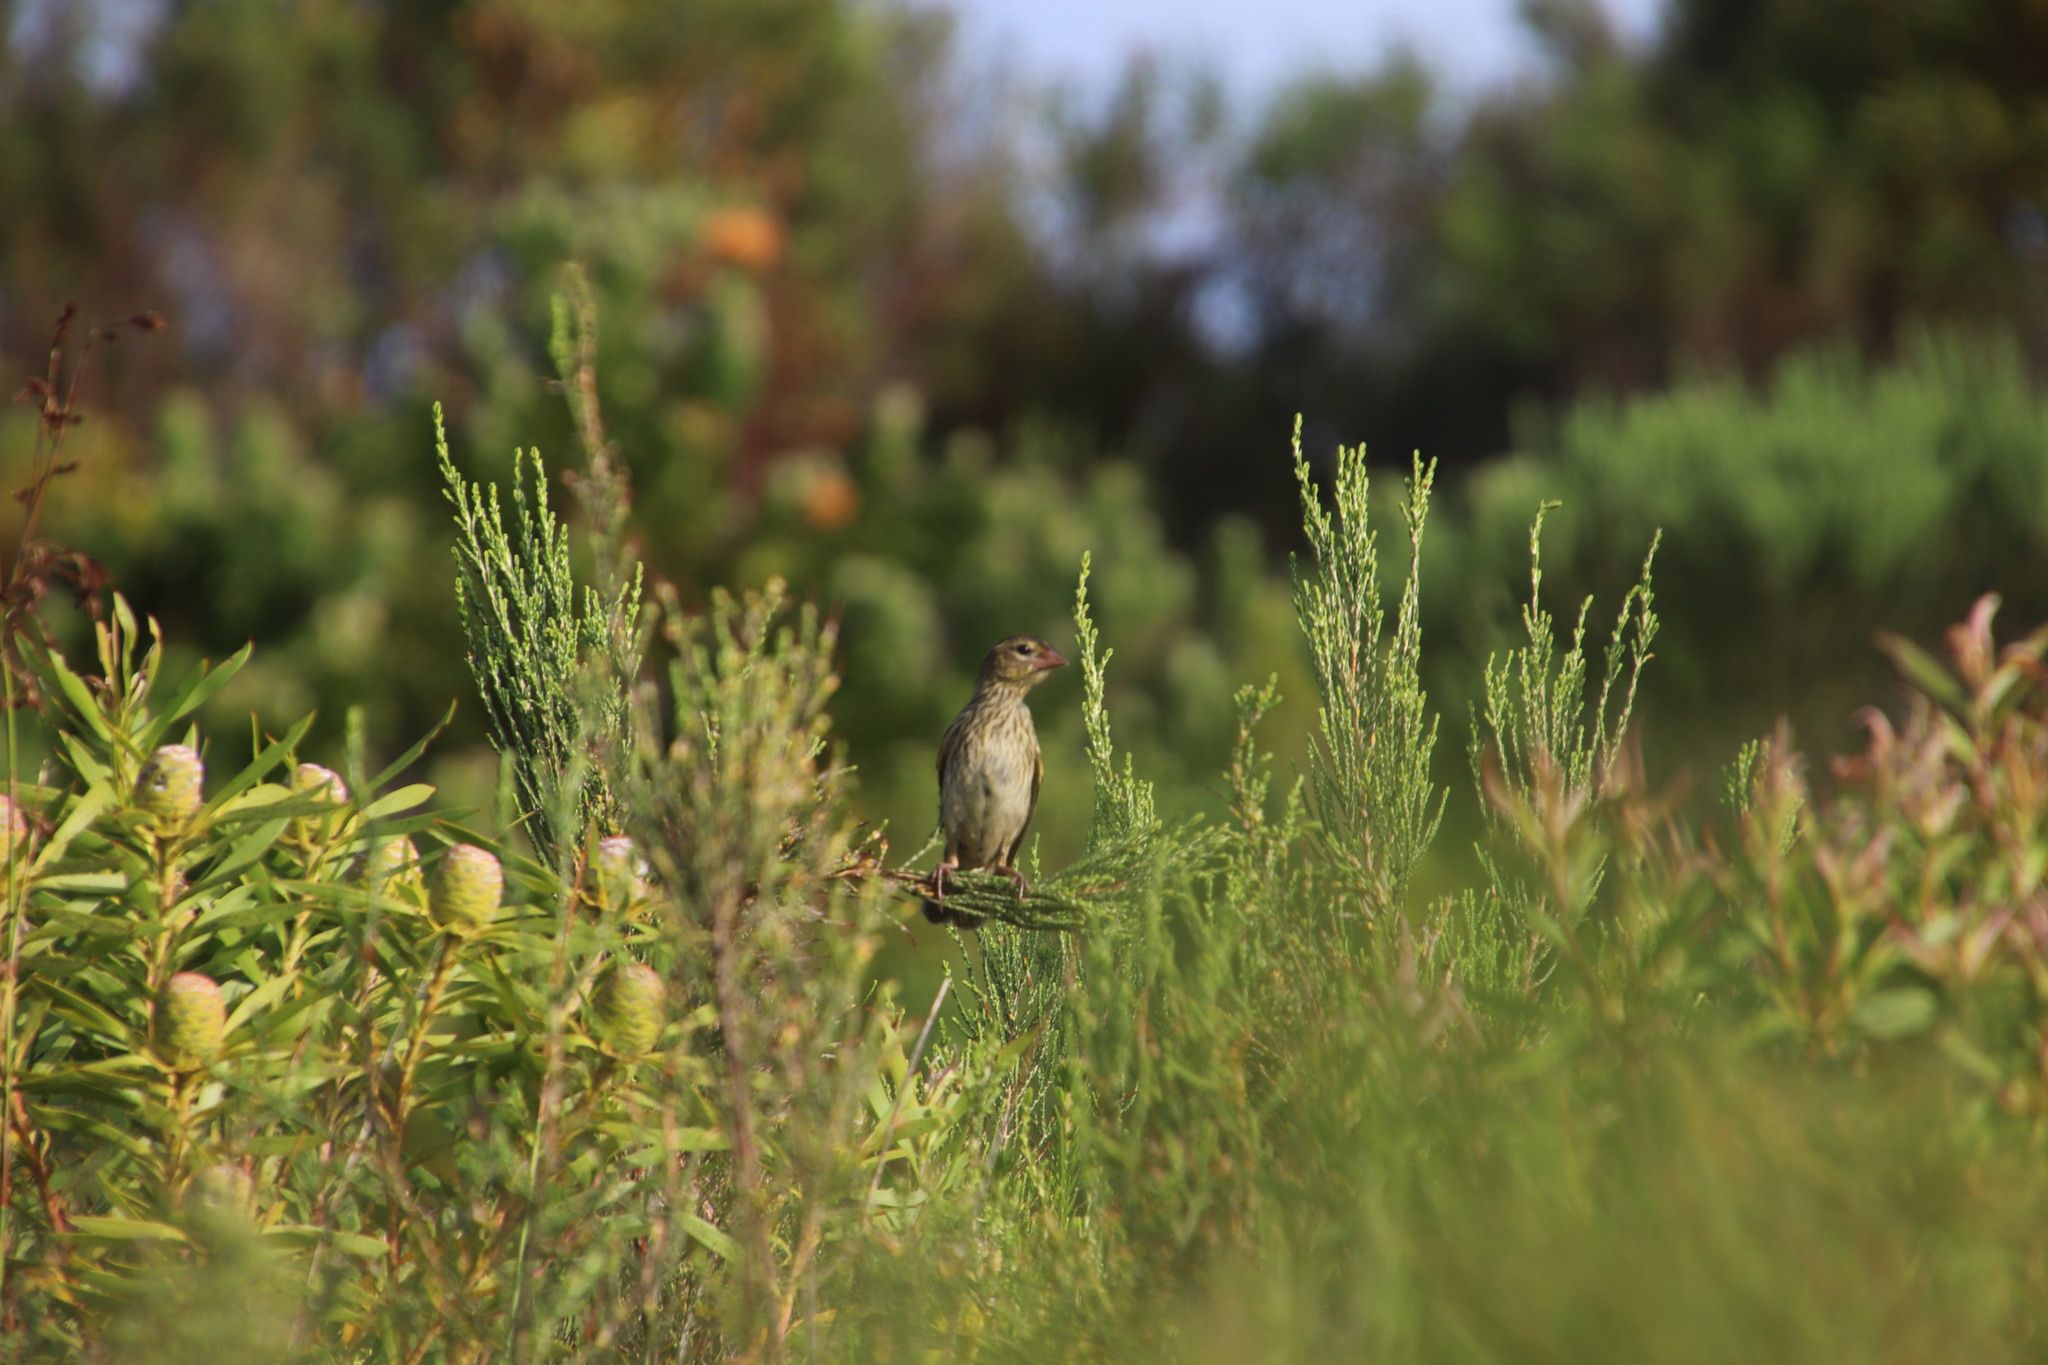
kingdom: Animalia
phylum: Chordata
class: Aves
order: Passeriformes
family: Ploceidae
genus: Euplectes
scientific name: Euplectes capensis
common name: Yellow bishop
